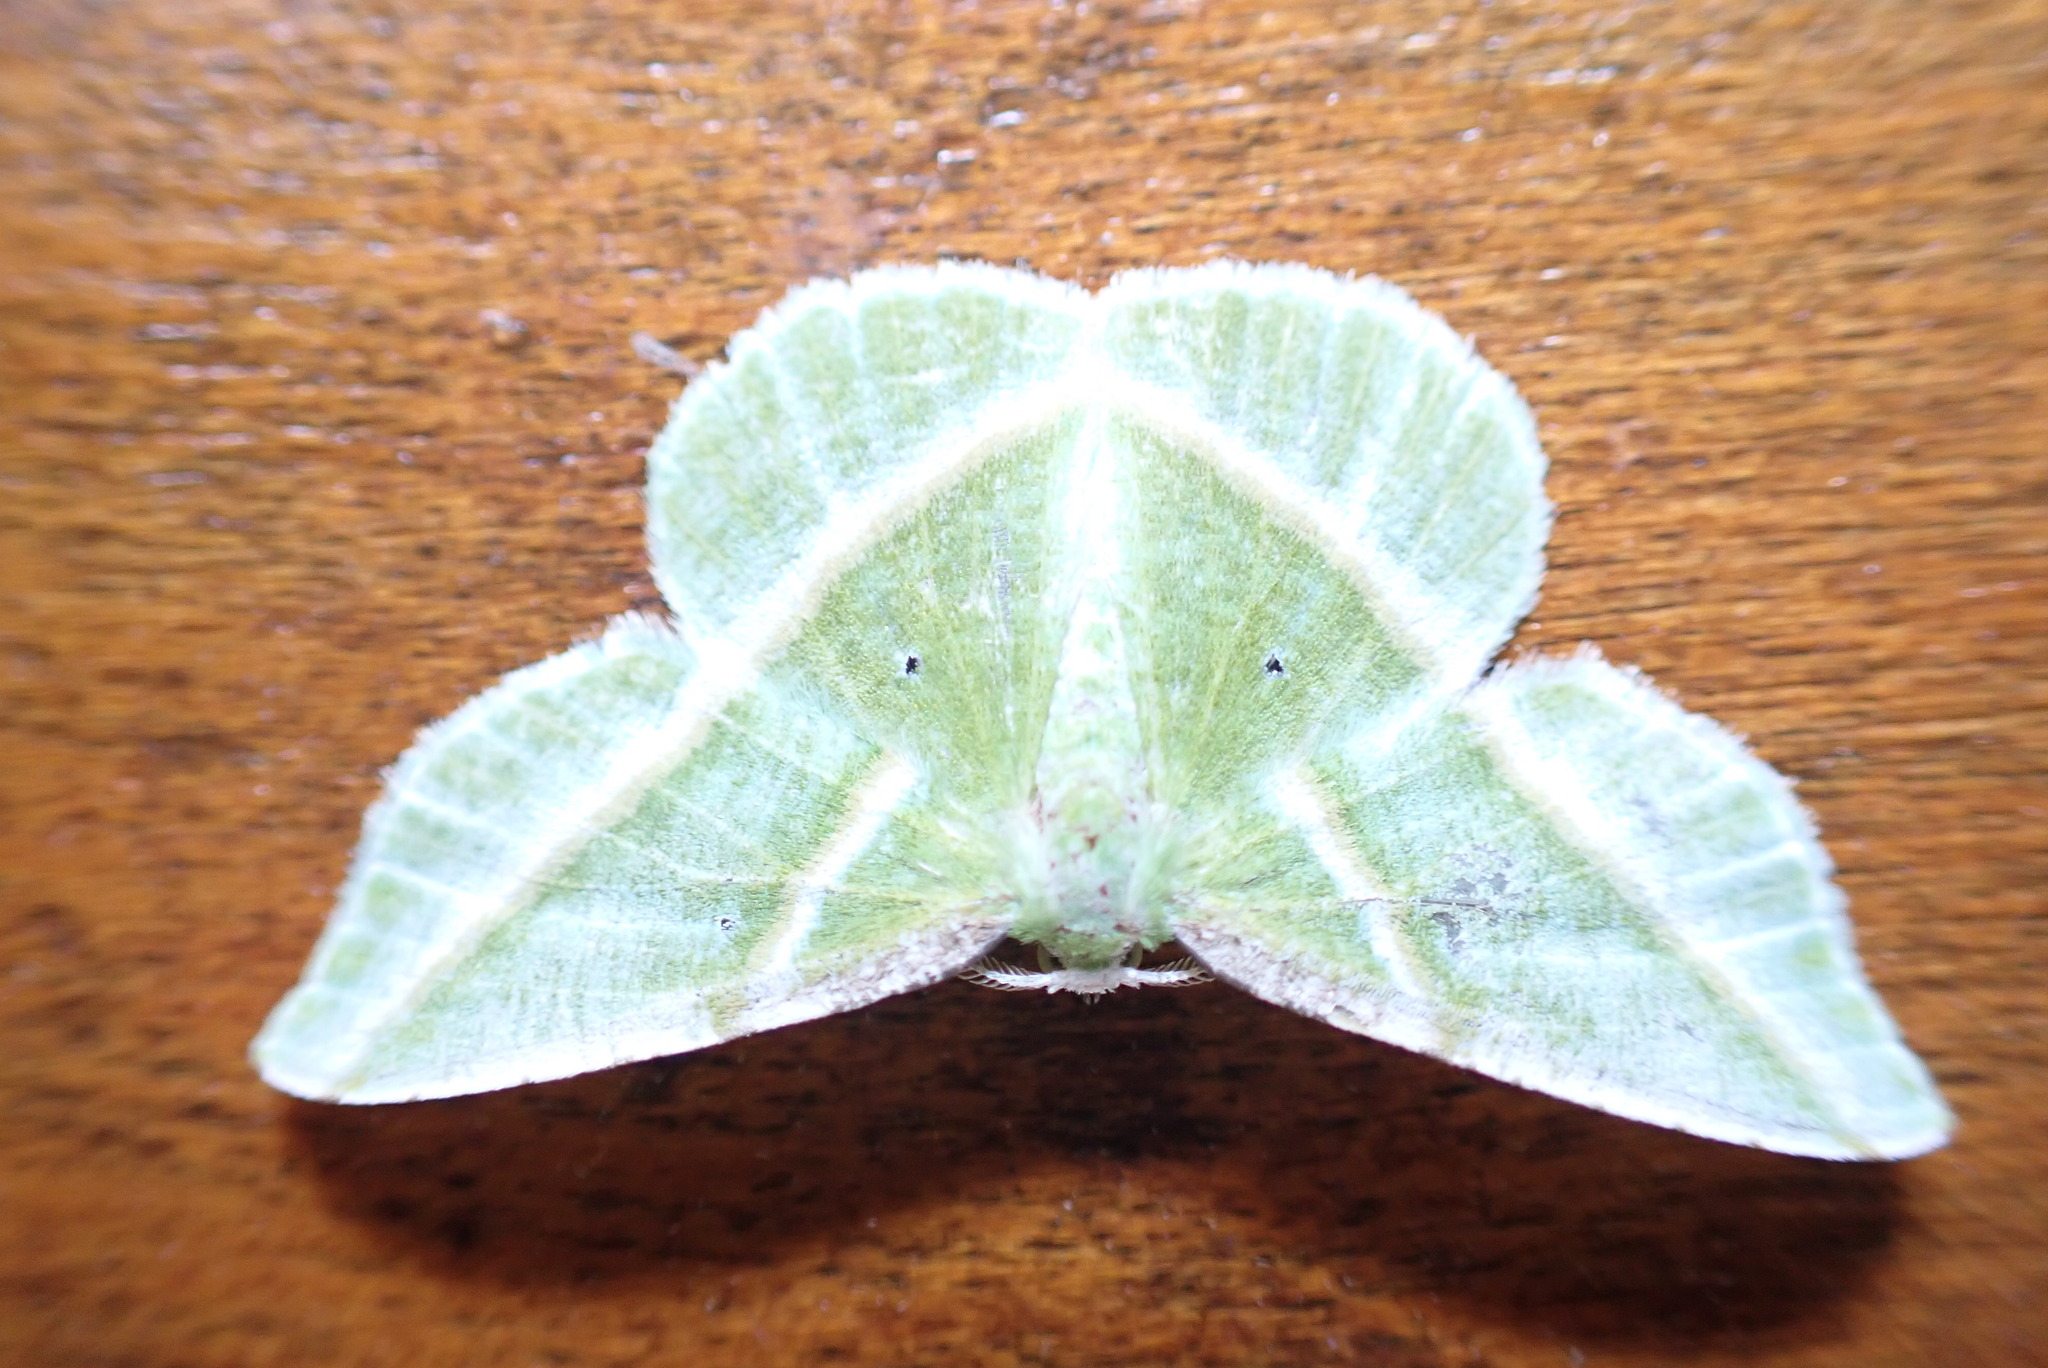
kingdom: Animalia
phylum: Arthropoda
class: Insecta
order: Lepidoptera
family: Geometridae
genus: Dichorda
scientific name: Dichorda iridaria
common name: Showy emerald
